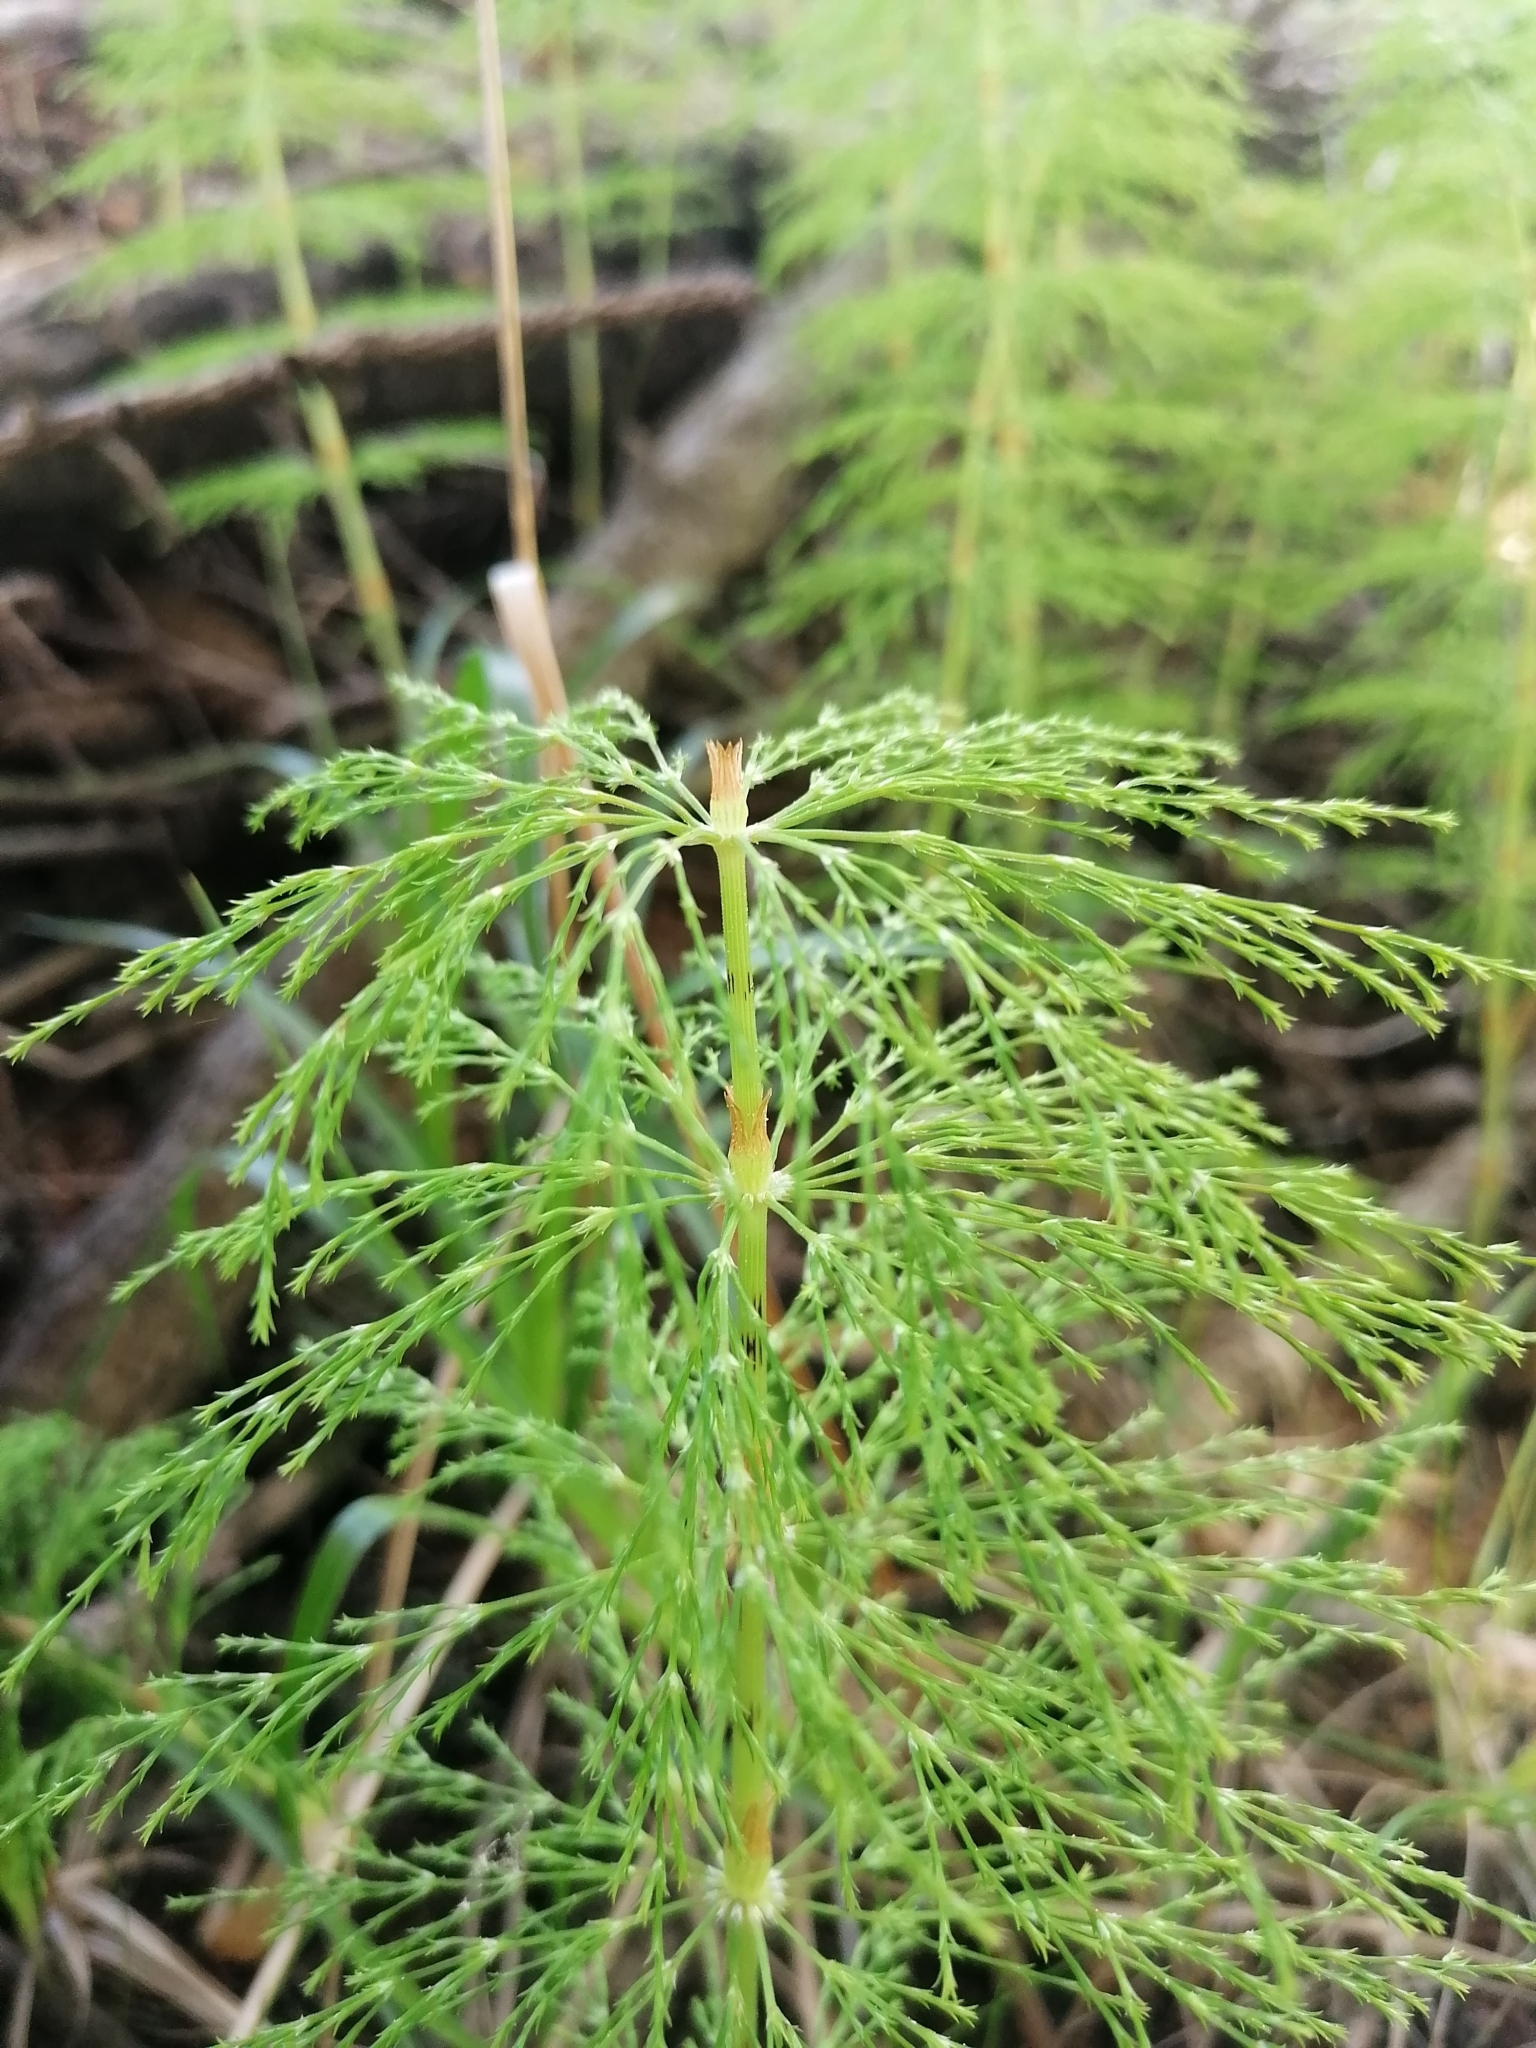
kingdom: Plantae
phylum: Tracheophyta
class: Polypodiopsida
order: Equisetales
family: Equisetaceae
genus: Equisetum
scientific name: Equisetum sylvaticum
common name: Wood horsetail
